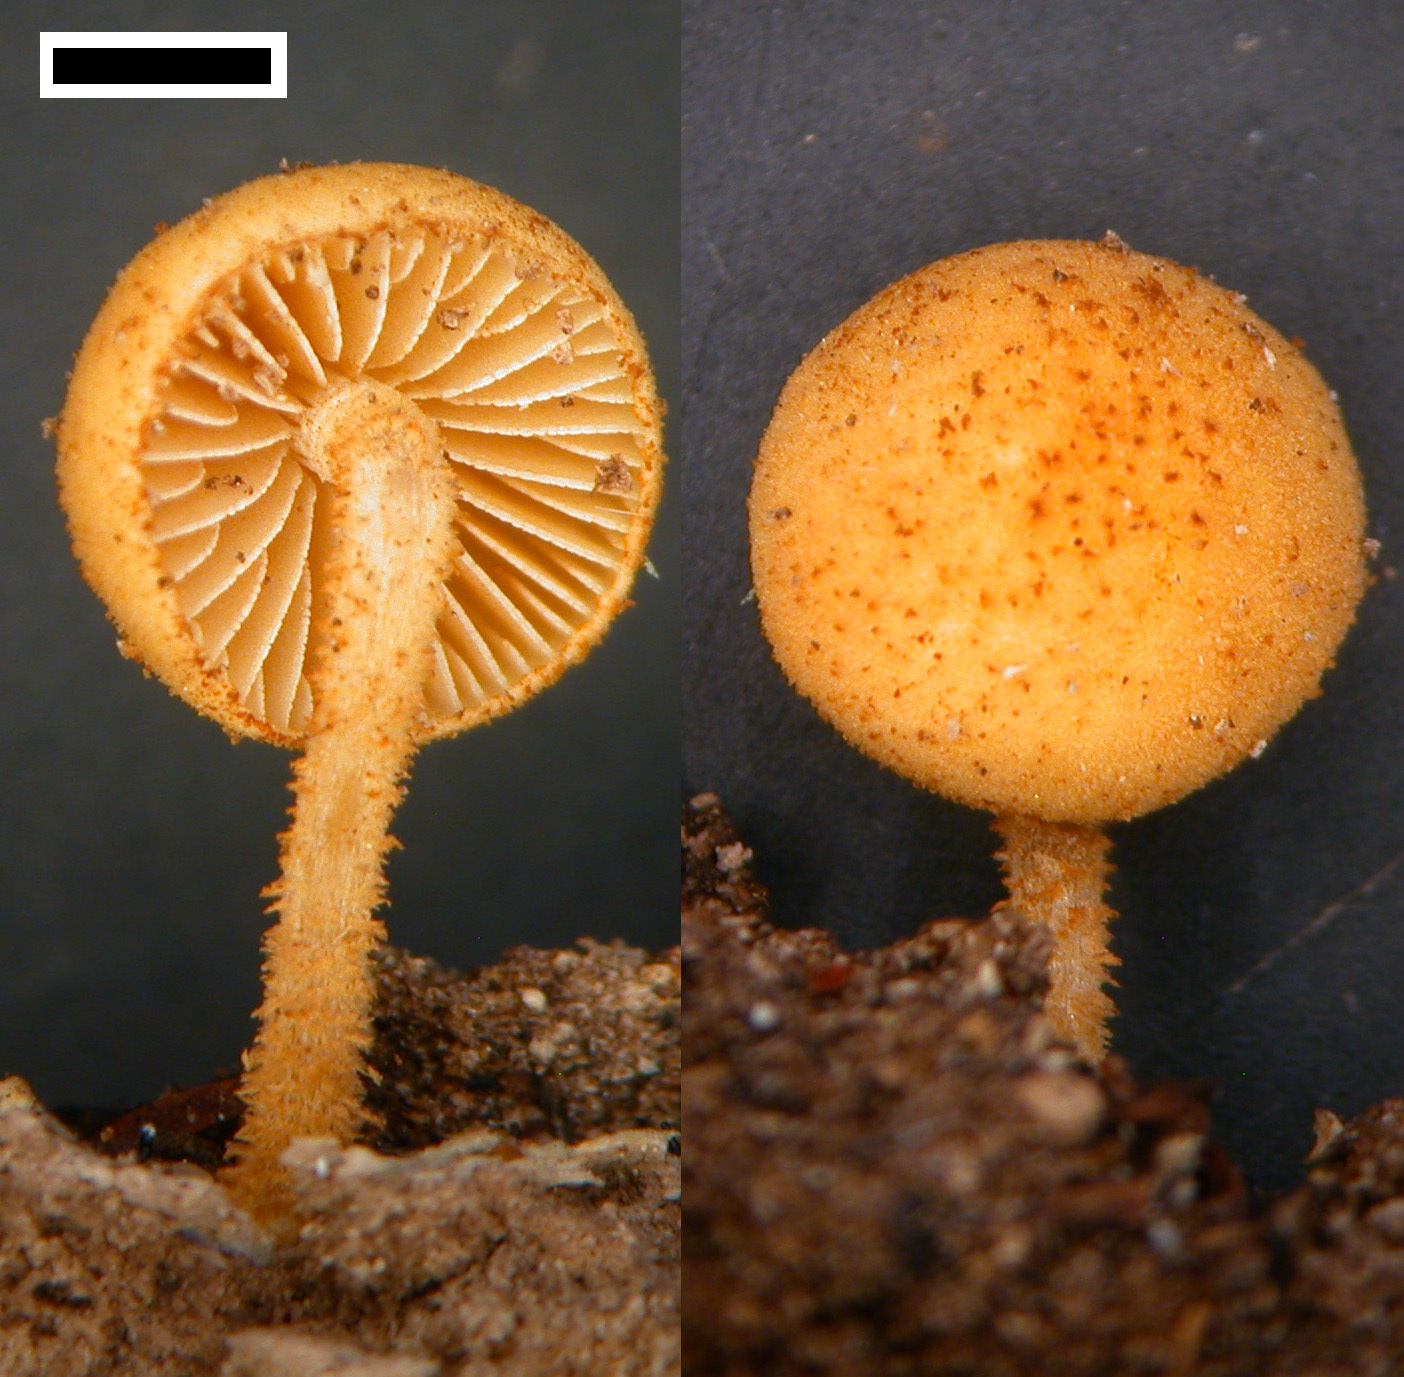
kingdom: Fungi
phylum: Basidiomycota
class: Agaricomycetes
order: Agaricales
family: Tubariaceae
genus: Flammulaster
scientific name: Flammulaster ciliatus
